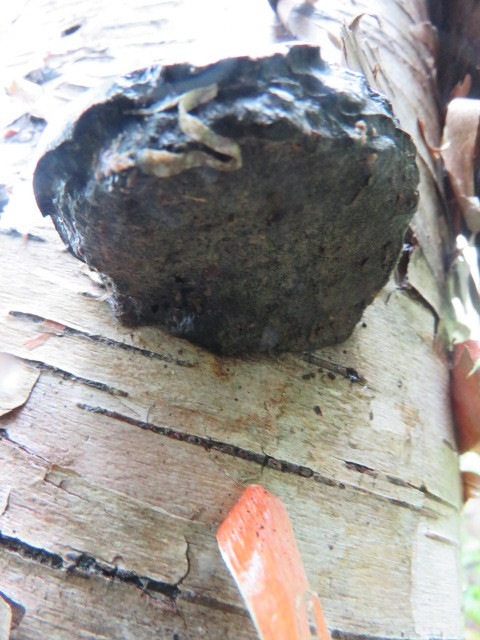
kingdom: Fungi
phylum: Basidiomycota
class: Agaricomycetes
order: Polyporales
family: Polyporaceae
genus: Fomes
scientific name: Fomes fomentarius
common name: Hoof fungus
